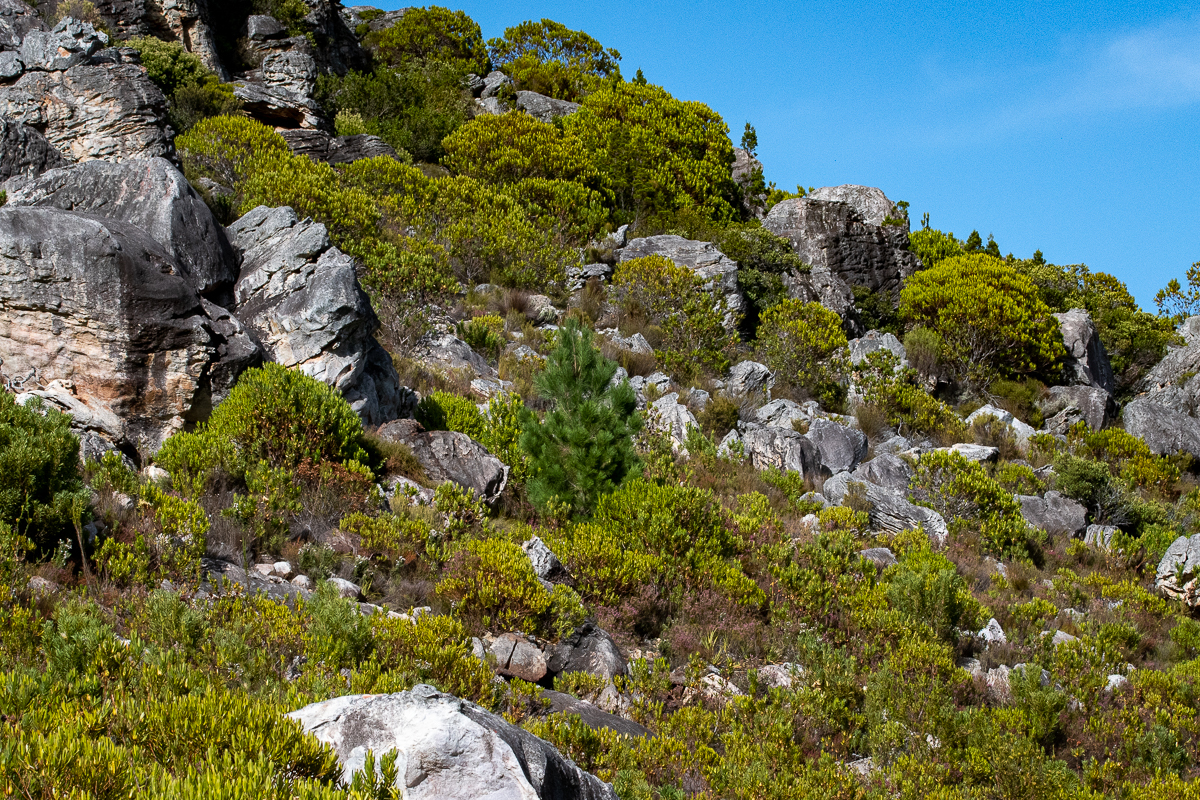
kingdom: Plantae
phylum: Tracheophyta
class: Pinopsida
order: Pinales
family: Pinaceae
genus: Pinus
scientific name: Pinus pinaster
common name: Maritime pine
